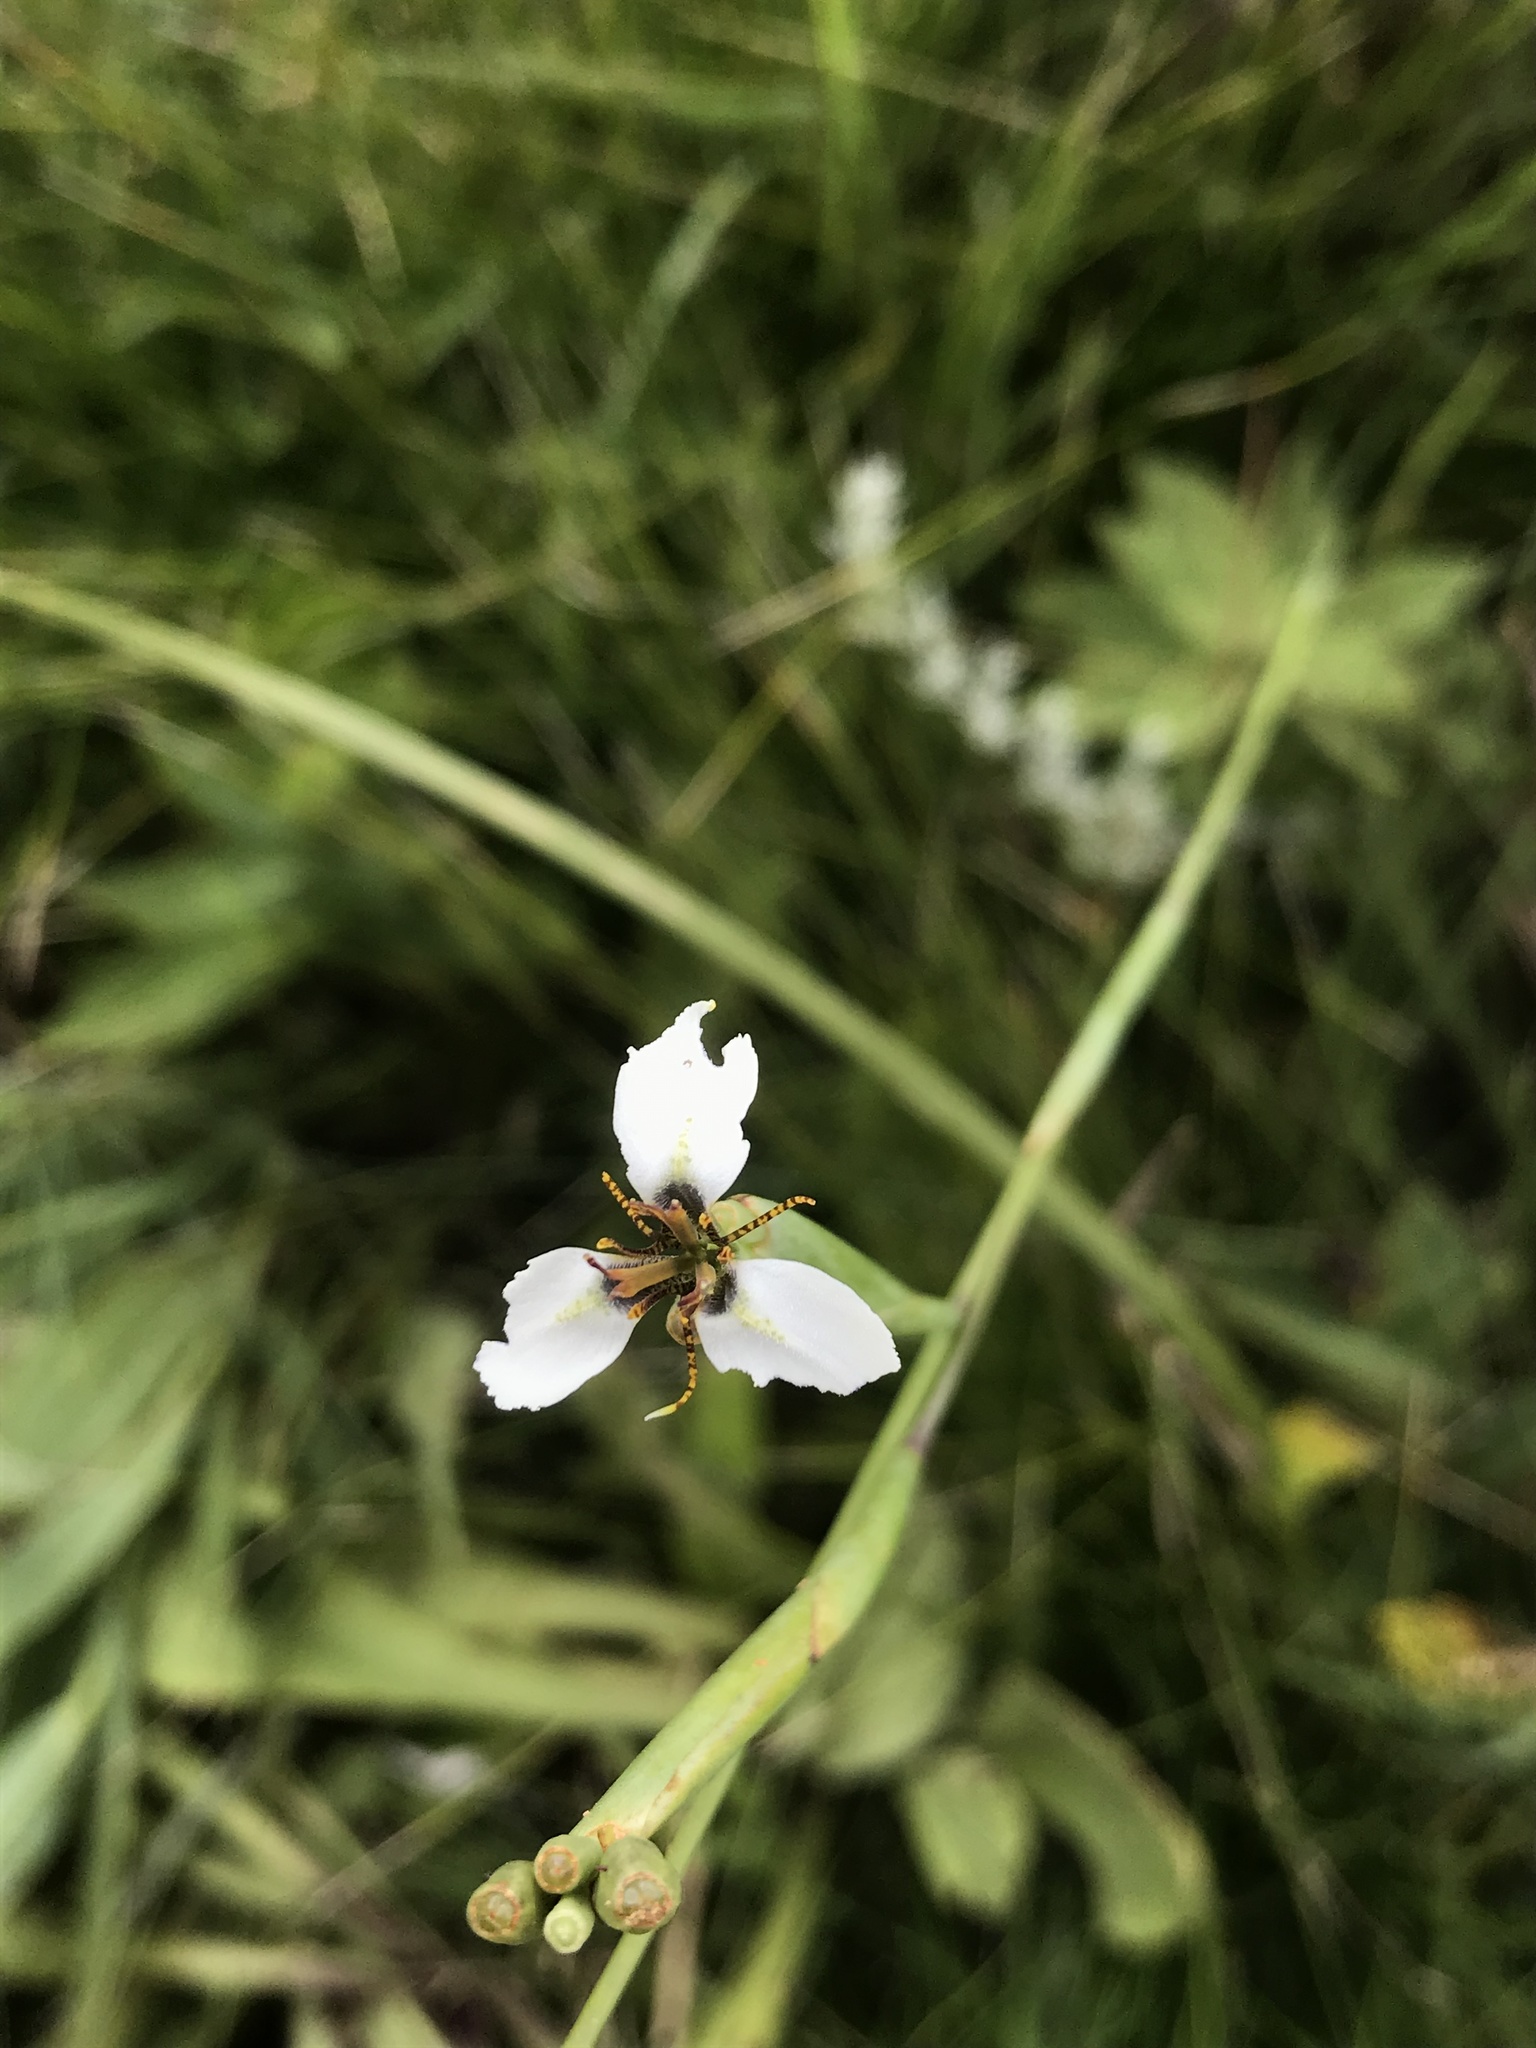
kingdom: Plantae
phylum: Tracheophyta
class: Liliopsida
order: Asparagales
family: Iridaceae
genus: Moraea
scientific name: Moraea brevistyla
